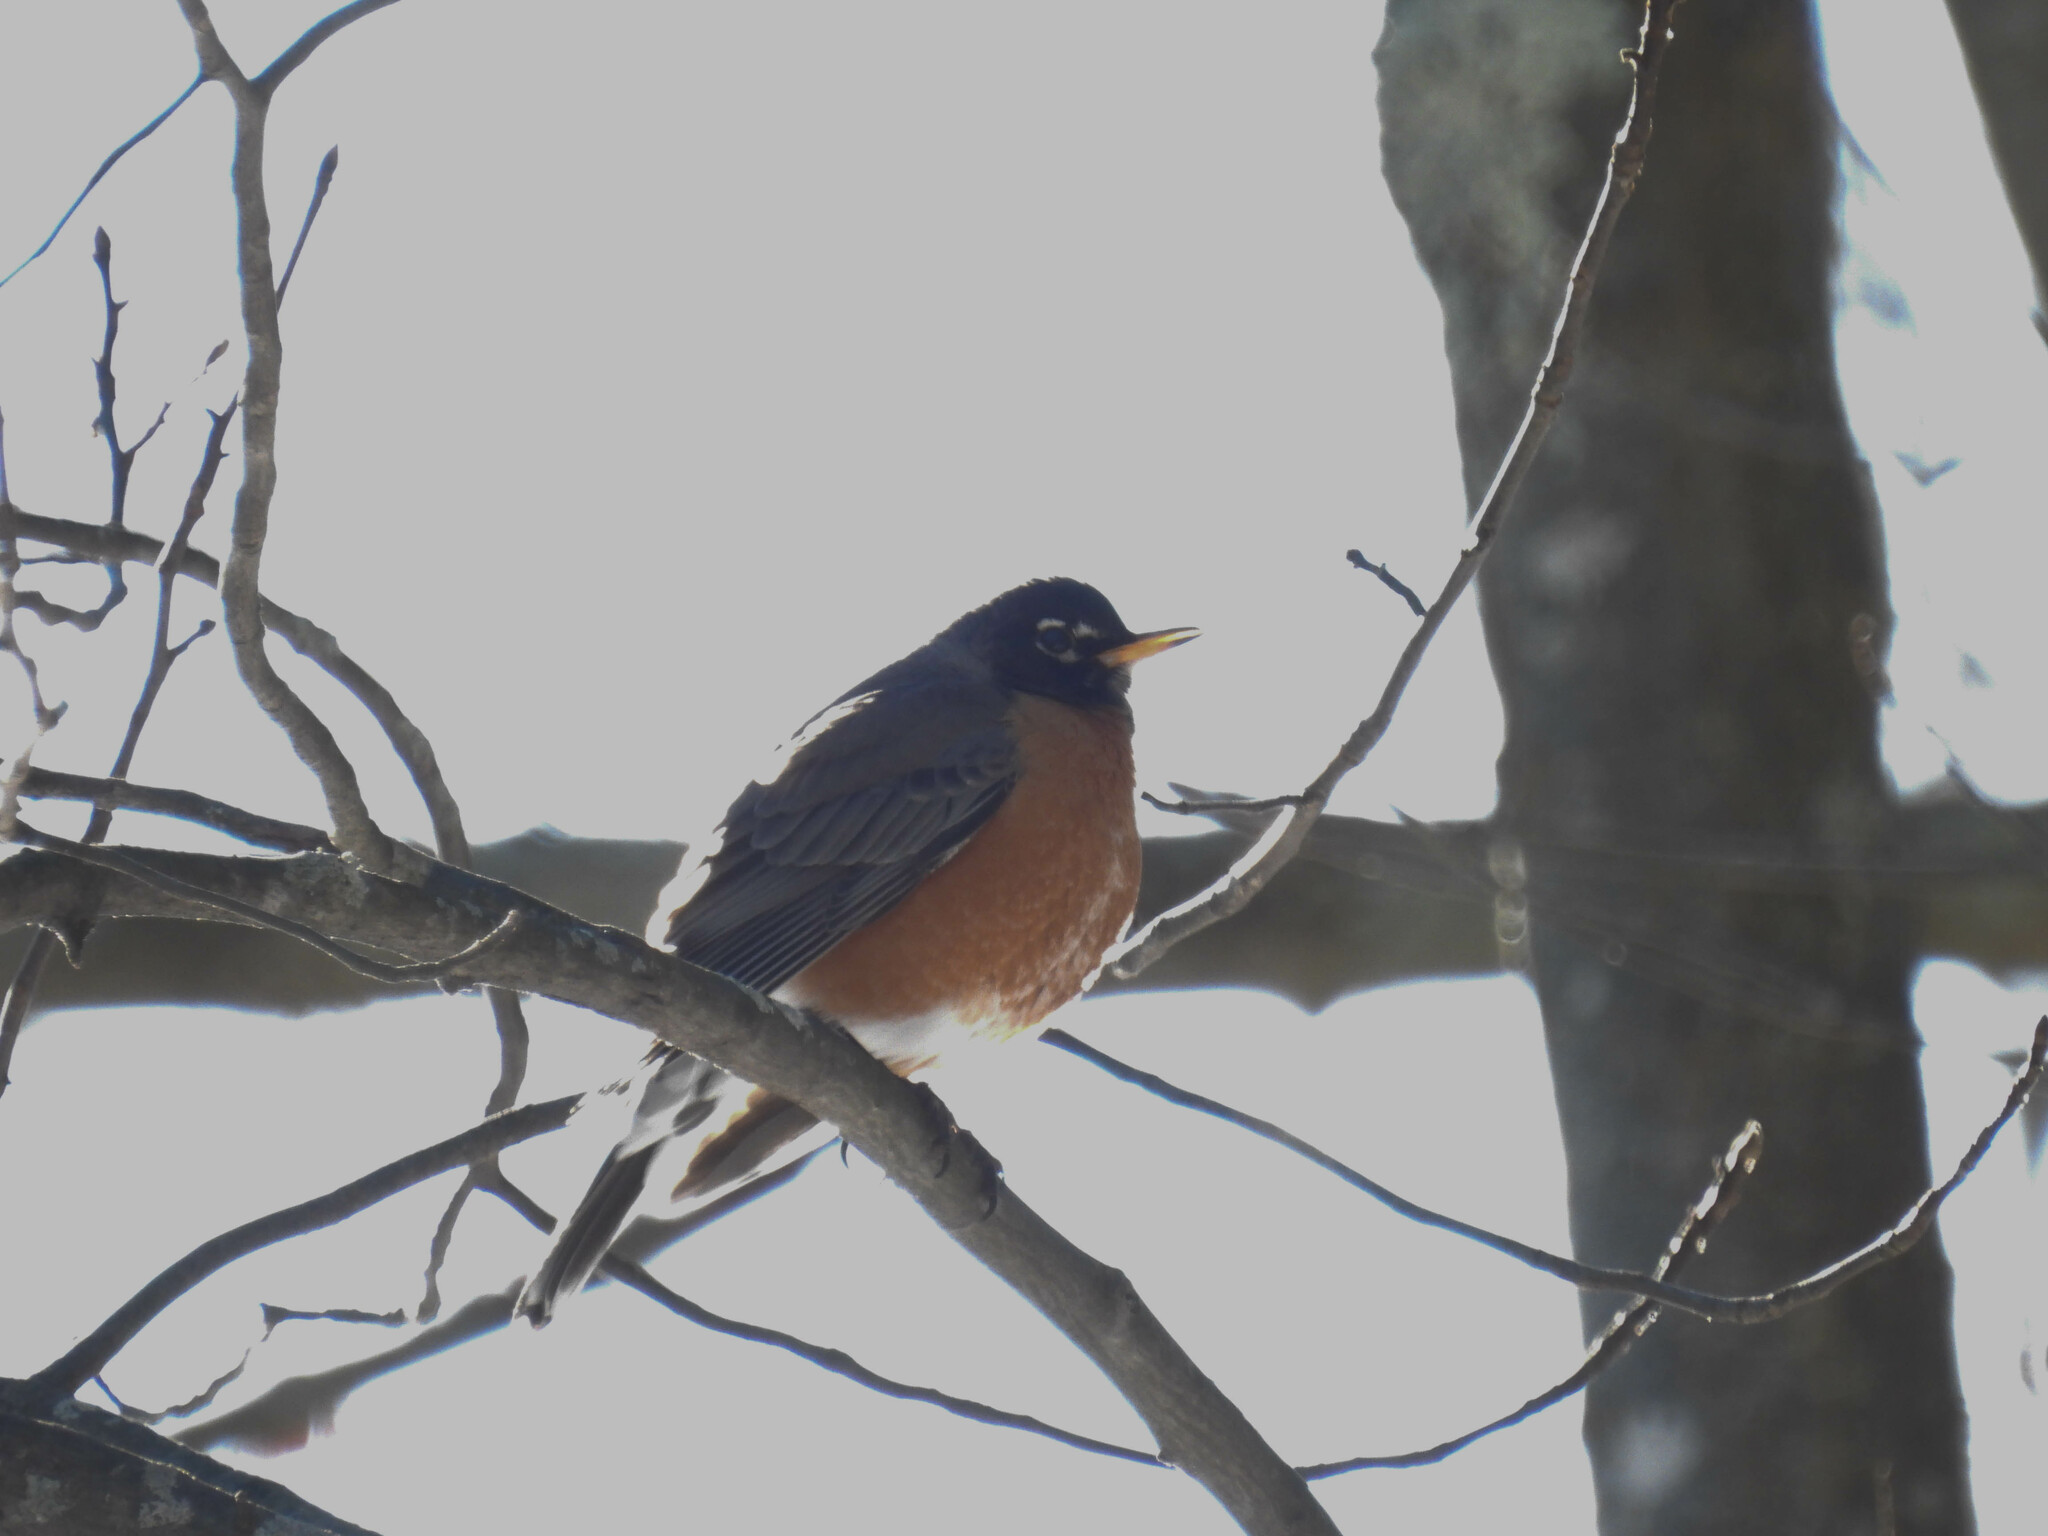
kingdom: Animalia
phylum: Chordata
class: Aves
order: Passeriformes
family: Turdidae
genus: Turdus
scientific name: Turdus migratorius
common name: American robin
